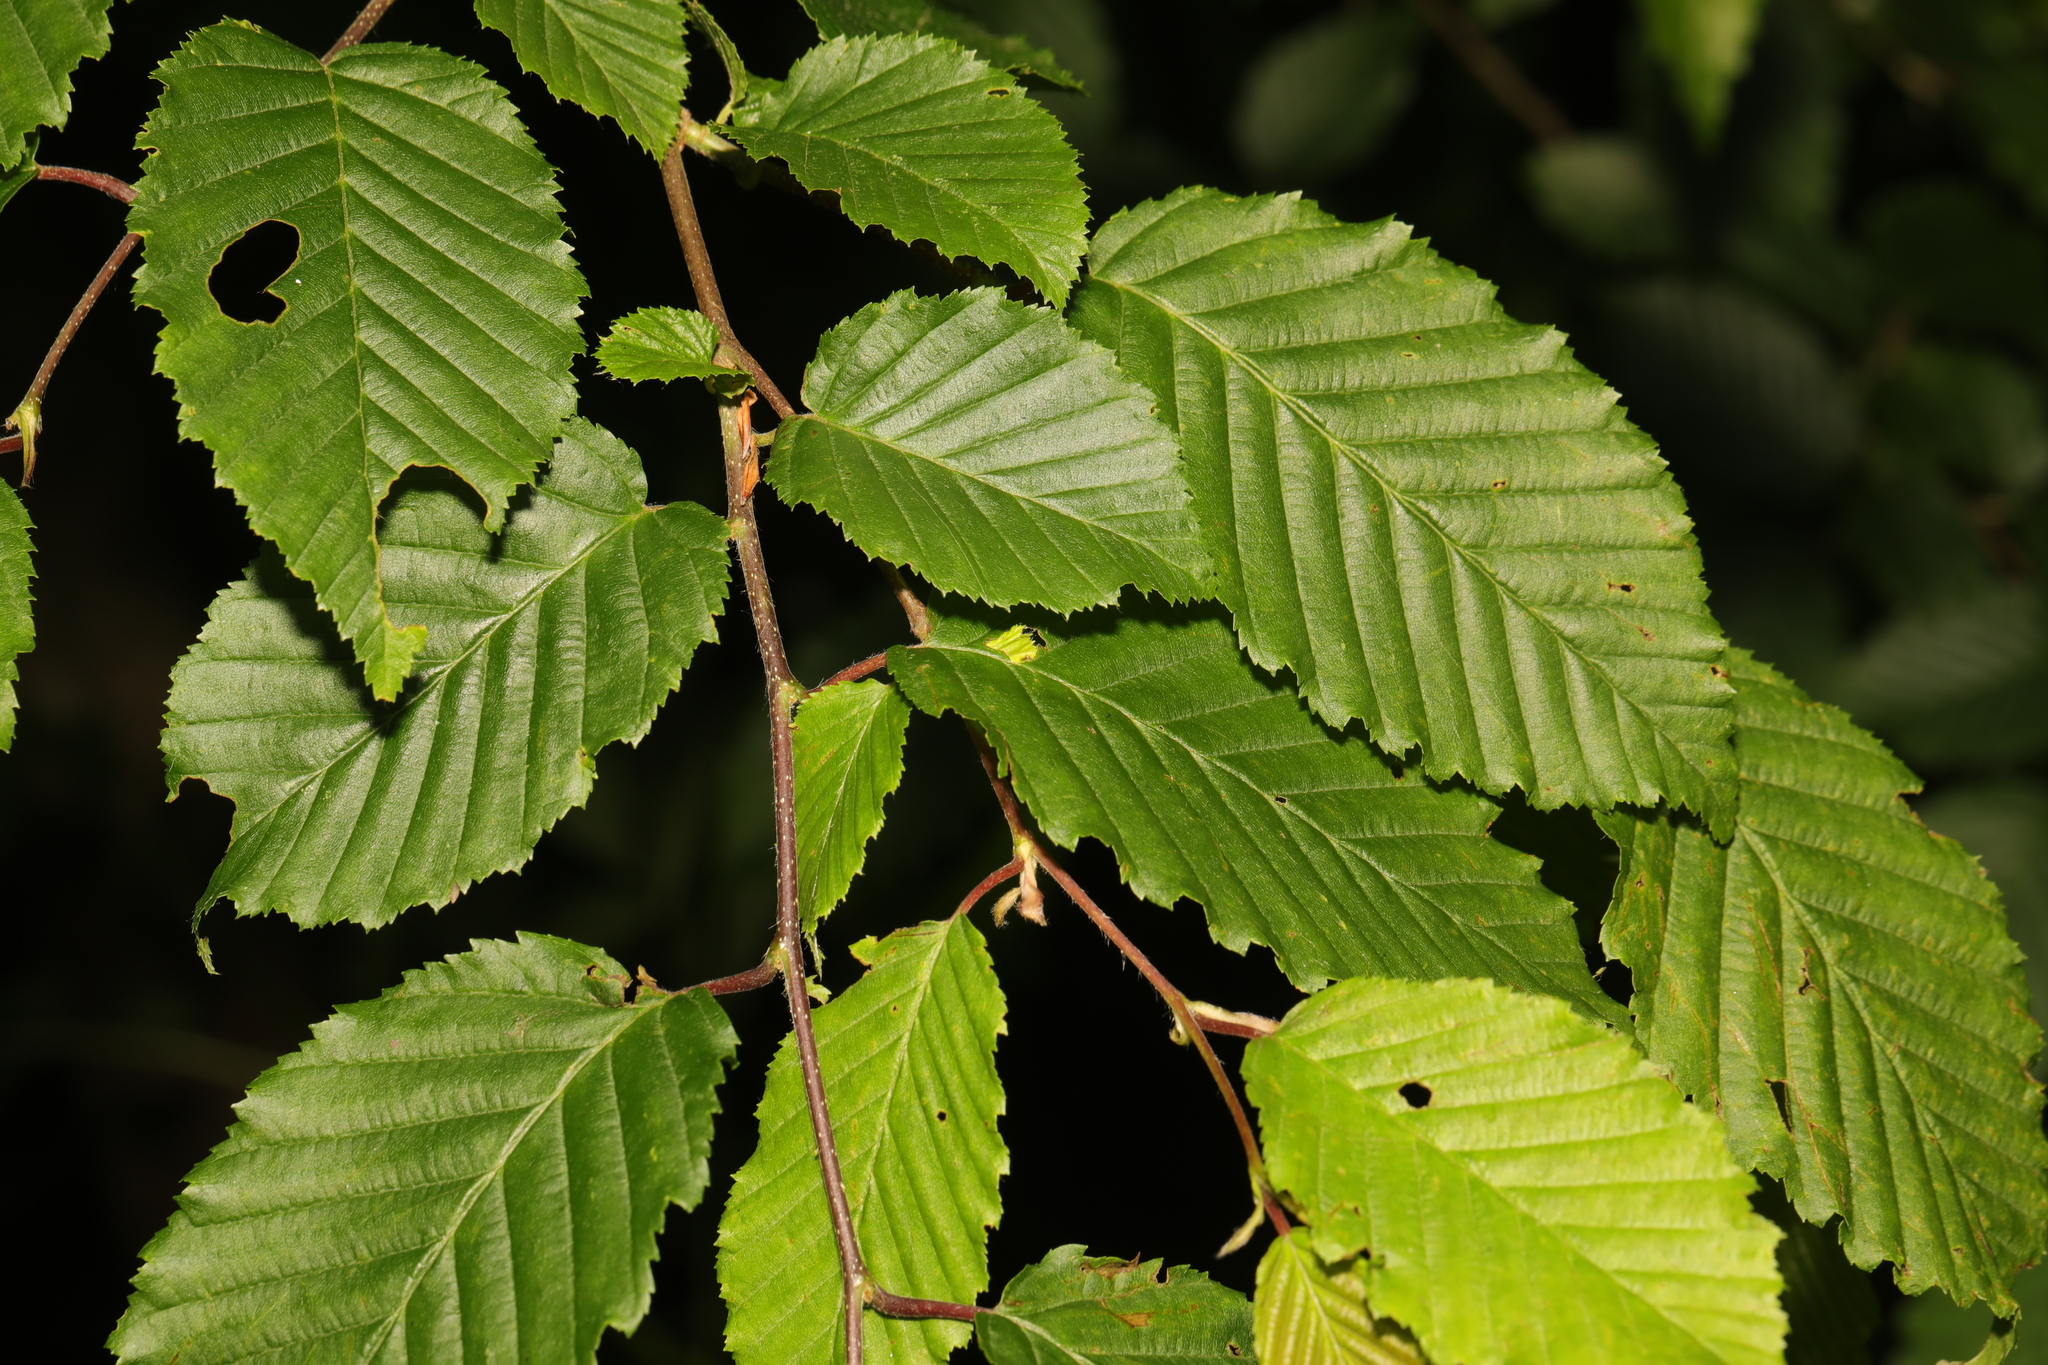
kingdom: Plantae
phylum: Tracheophyta
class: Magnoliopsida
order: Fagales
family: Betulaceae
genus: Carpinus
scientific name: Carpinus betulus
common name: Hornbeam
